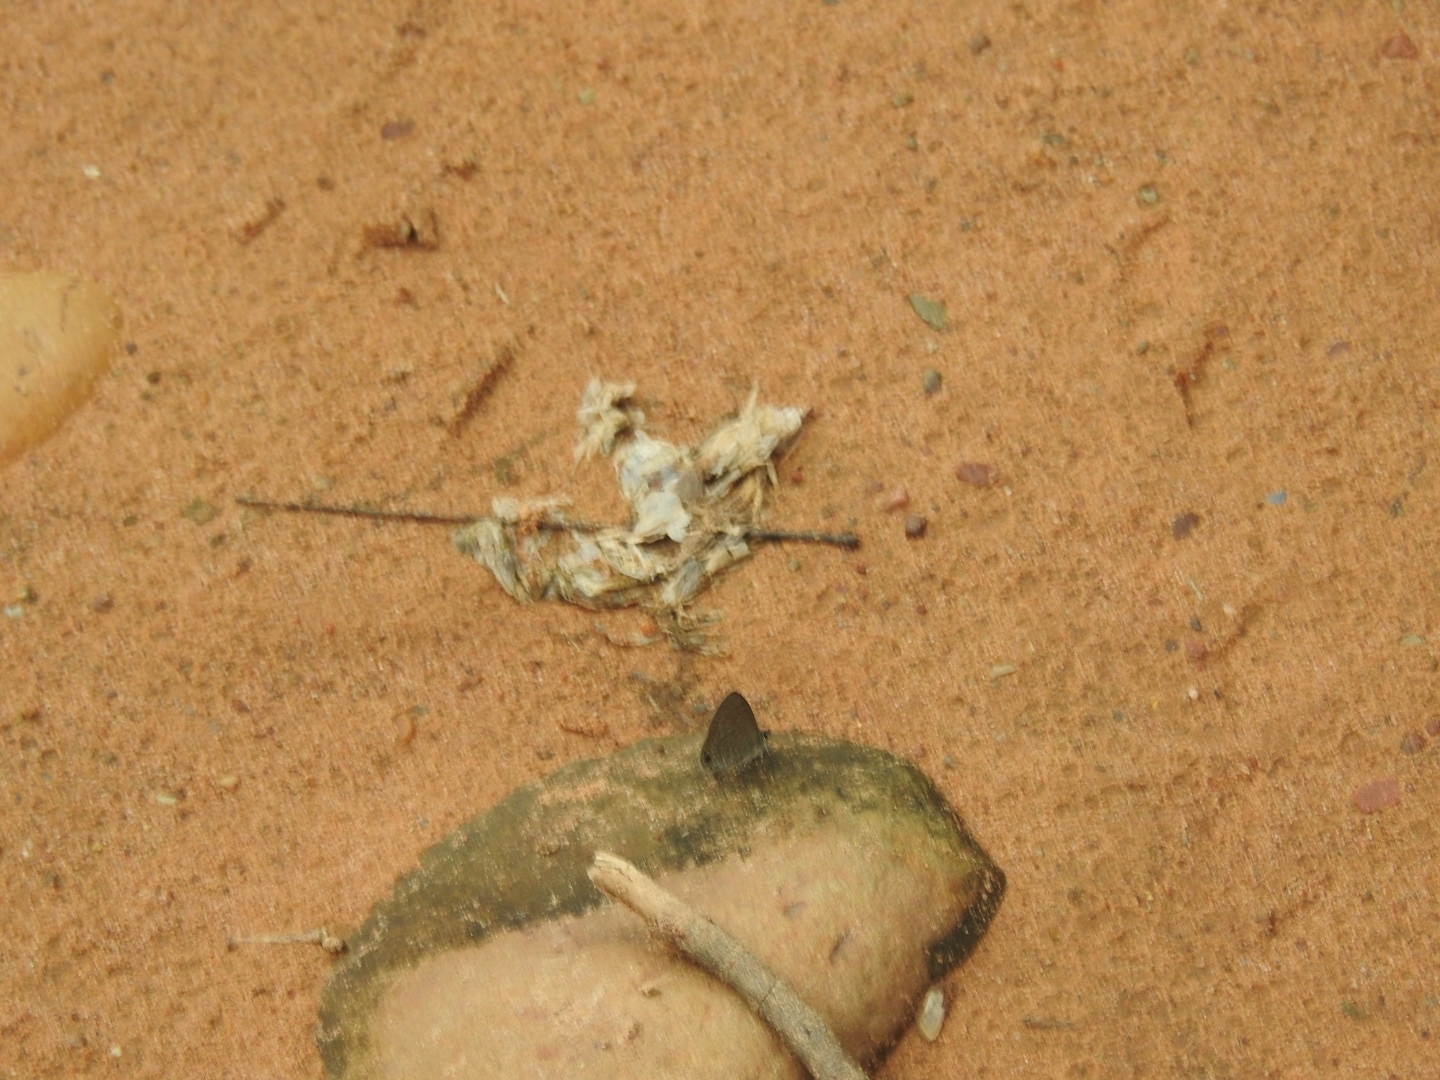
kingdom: Animalia
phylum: Arthropoda
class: Insecta
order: Lepidoptera
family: Lycaenidae
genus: Prosotas
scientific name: Prosotas dubiosa
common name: Tailless lineblue
